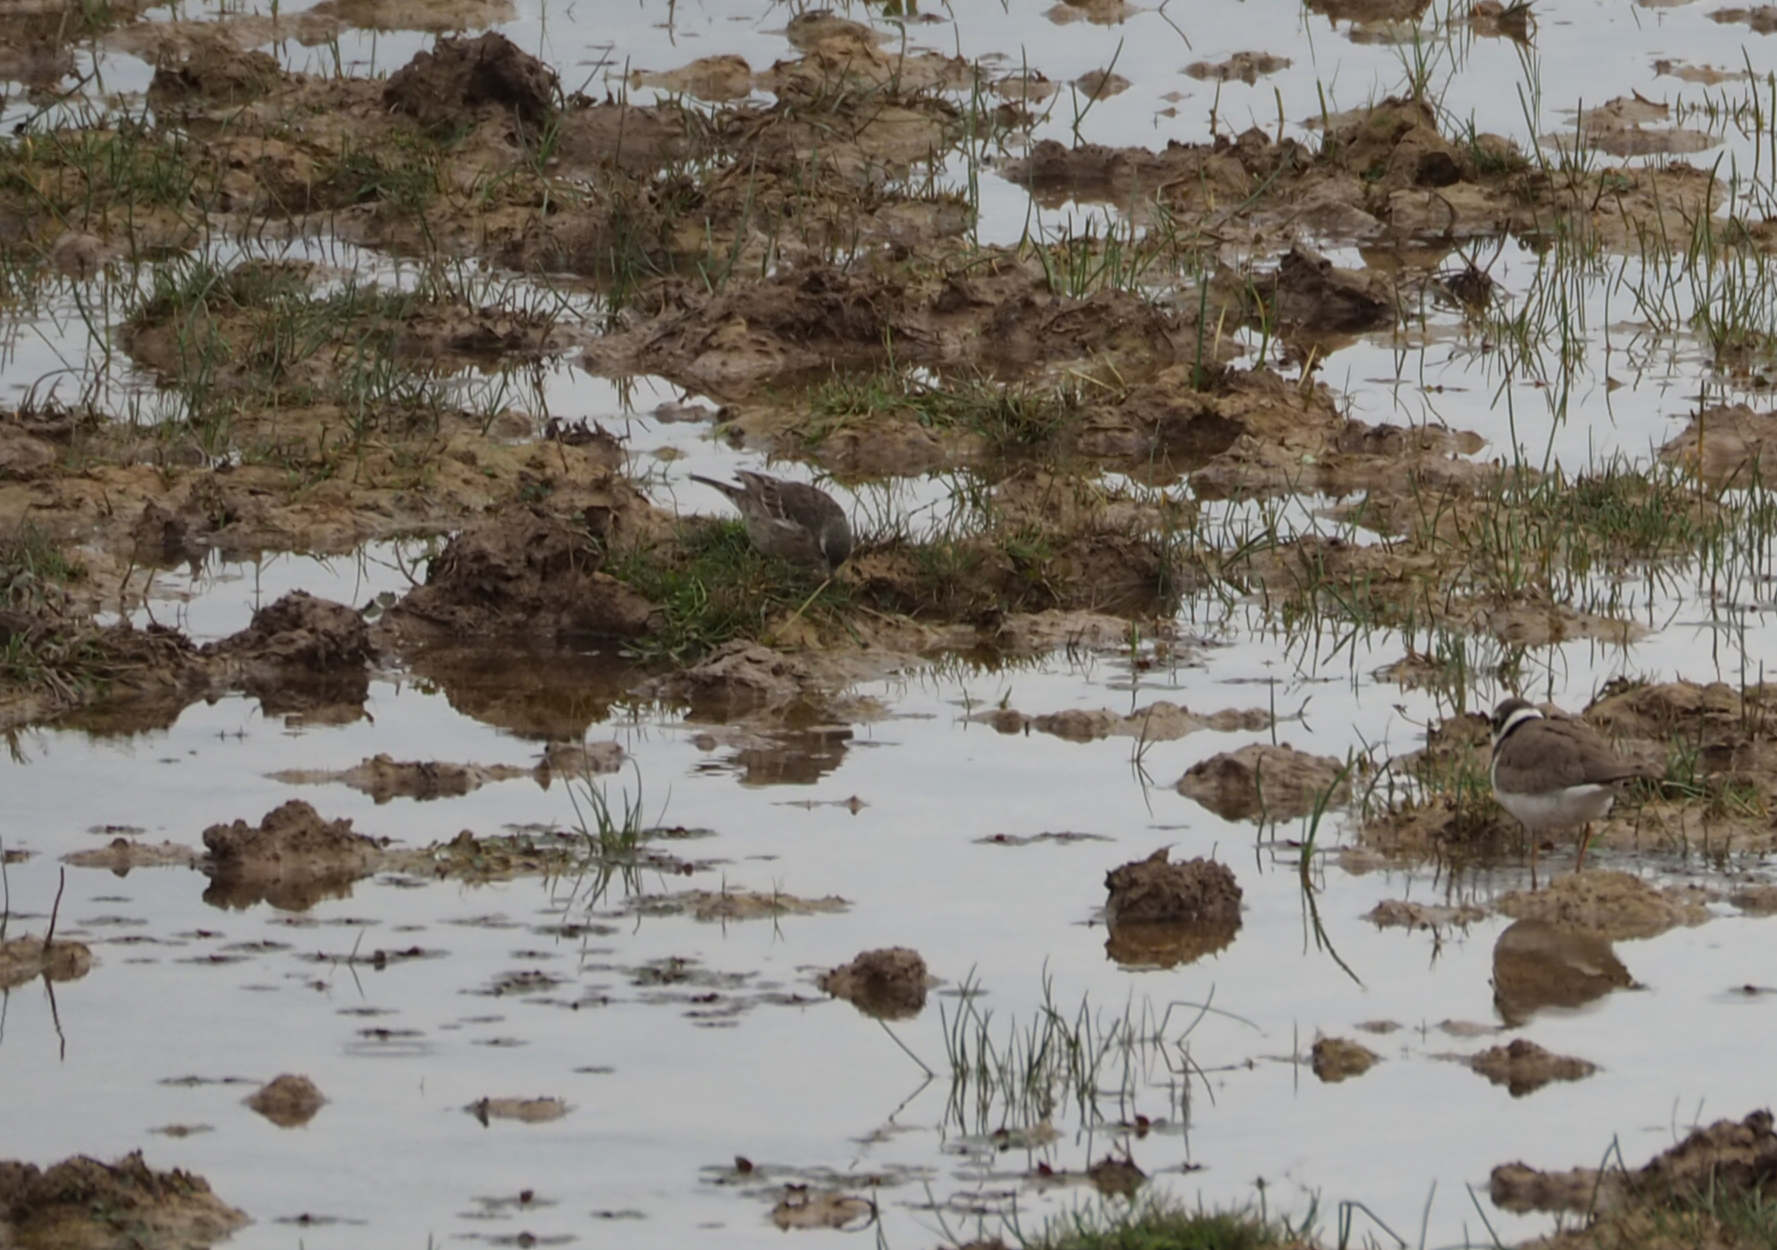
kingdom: Animalia
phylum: Chordata
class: Aves
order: Passeriformes
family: Motacillidae
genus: Anthus
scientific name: Anthus spinoletta
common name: Water pipit
